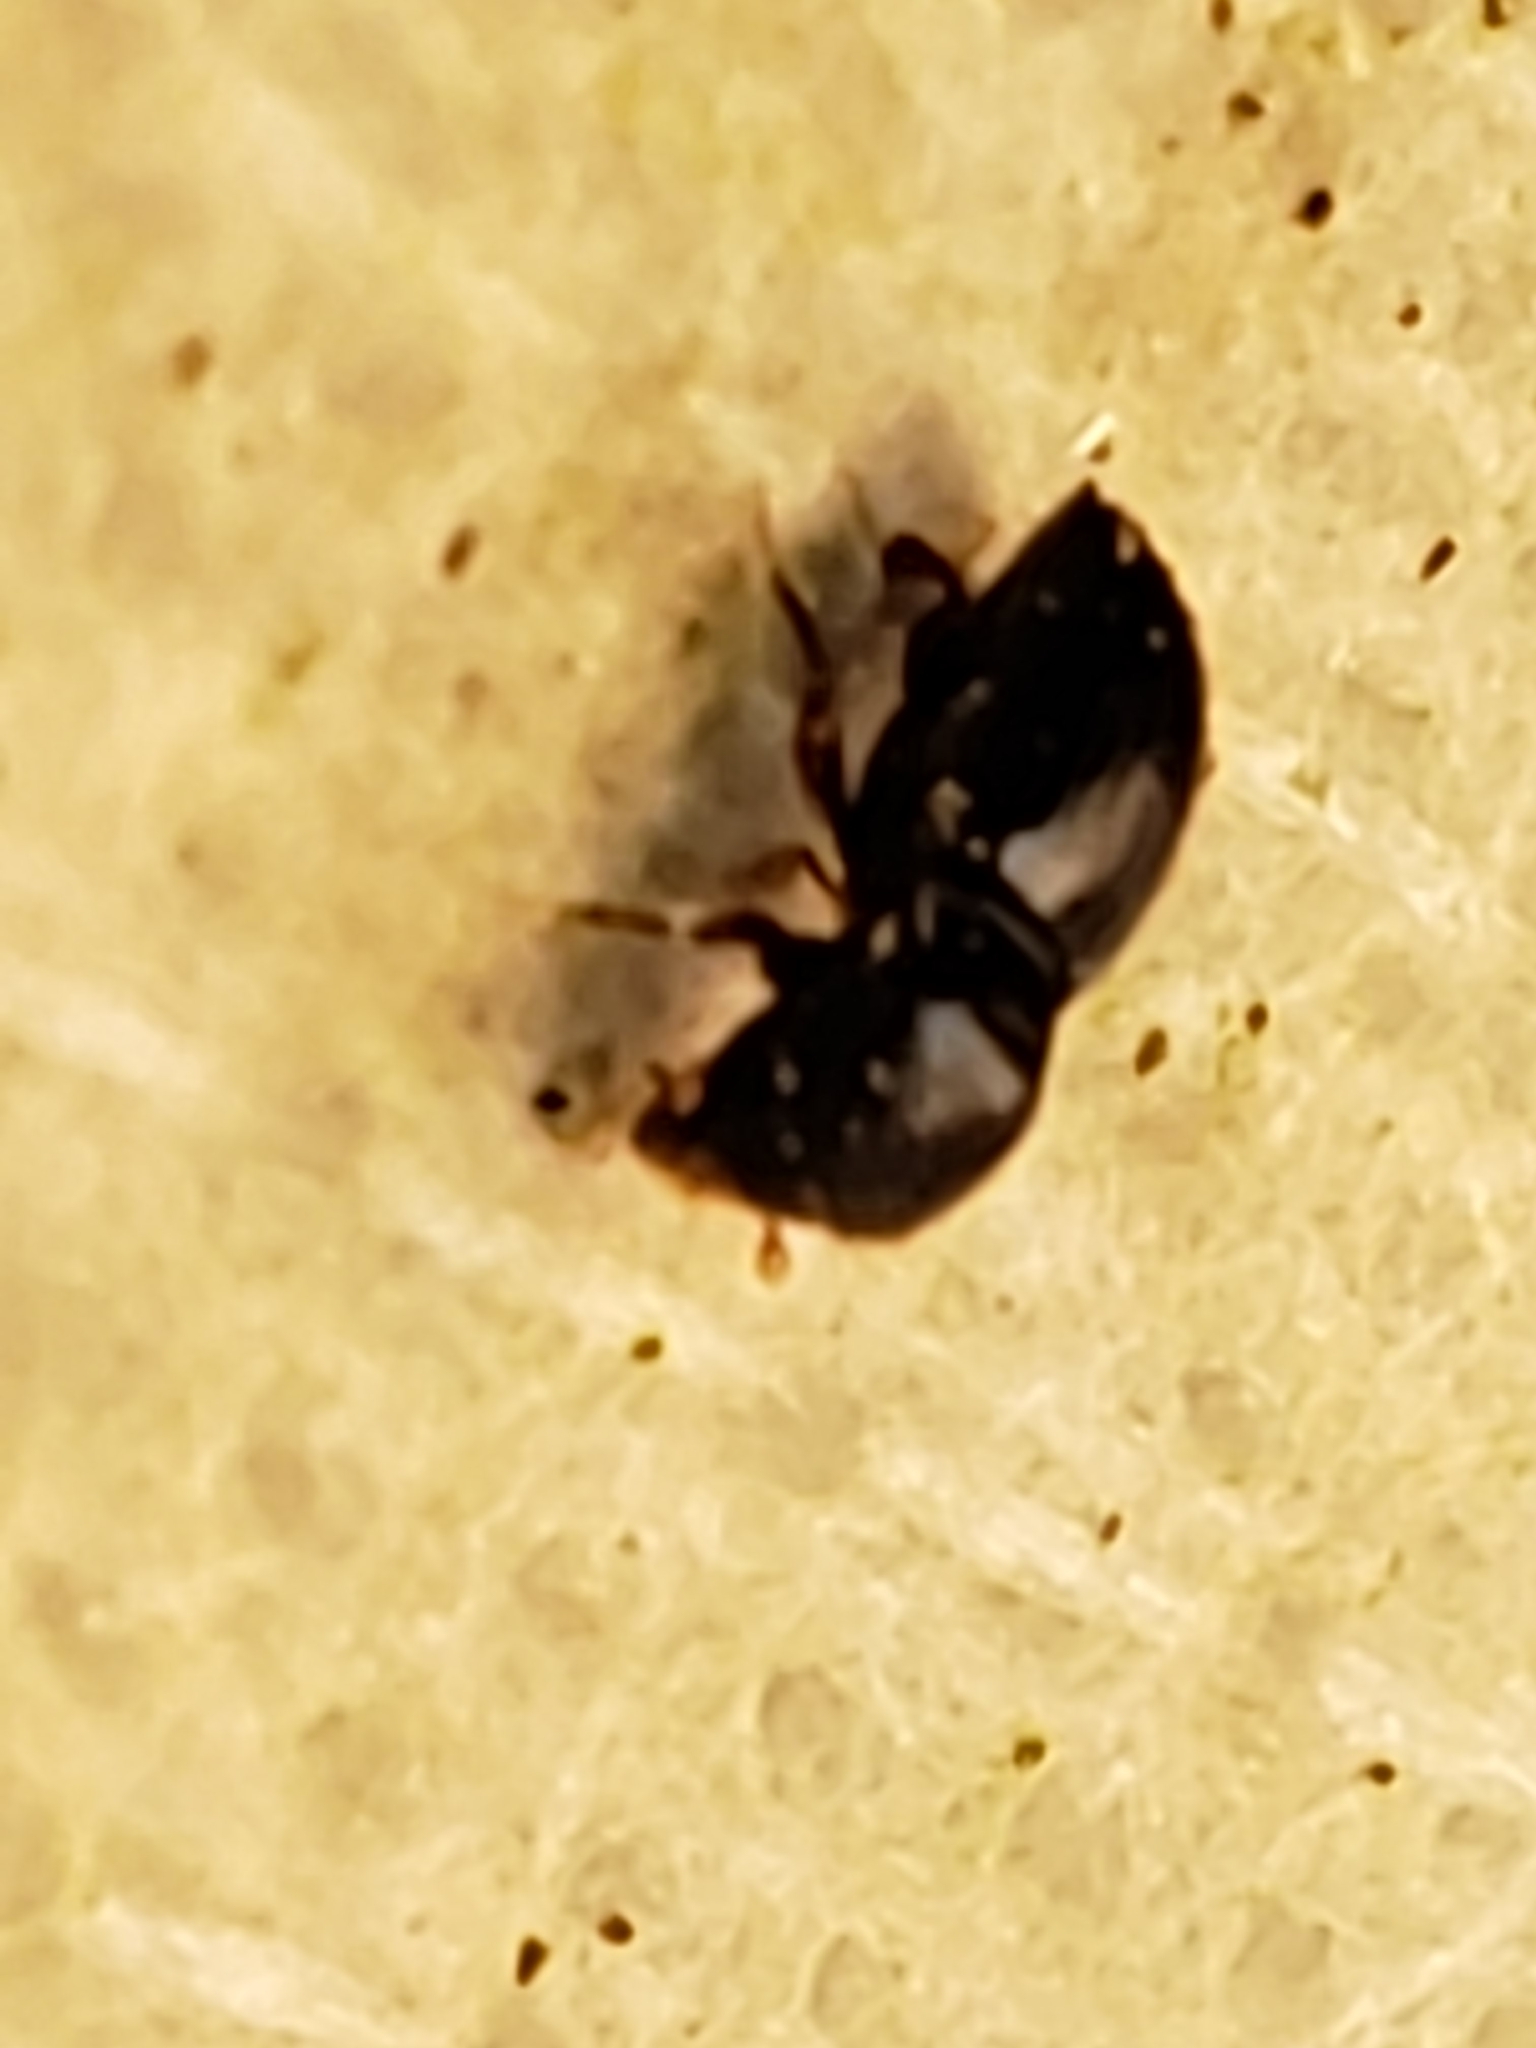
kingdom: Animalia
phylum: Arthropoda
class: Insecta
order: Coleoptera
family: Curculionidae
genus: Euwallacea
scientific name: Euwallacea validus
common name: Bark beetle
